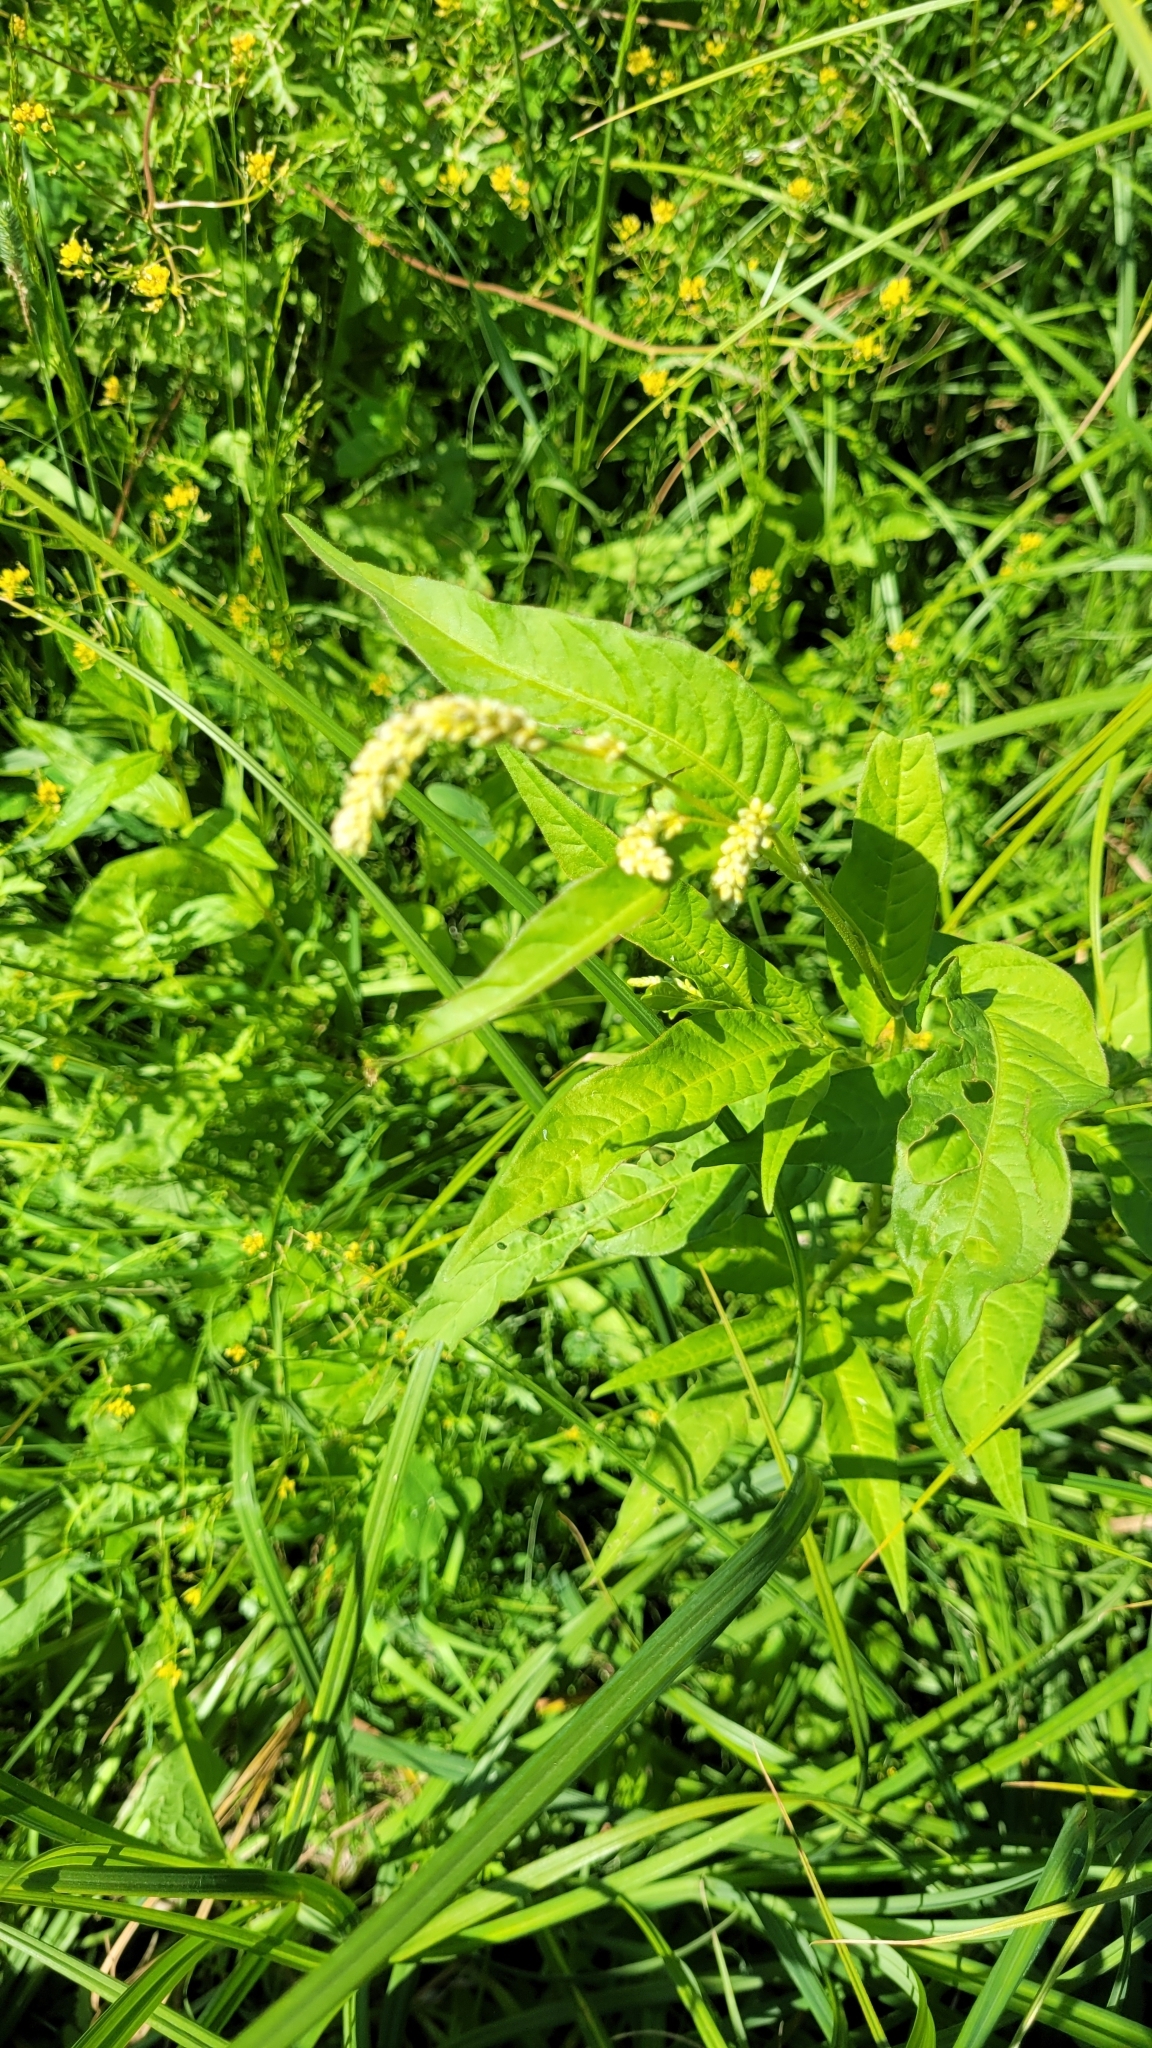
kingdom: Plantae
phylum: Tracheophyta
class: Magnoliopsida
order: Caryophyllales
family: Polygonaceae
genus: Persicaria
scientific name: Persicaria lapathifolia
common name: Curlytop knotweed
